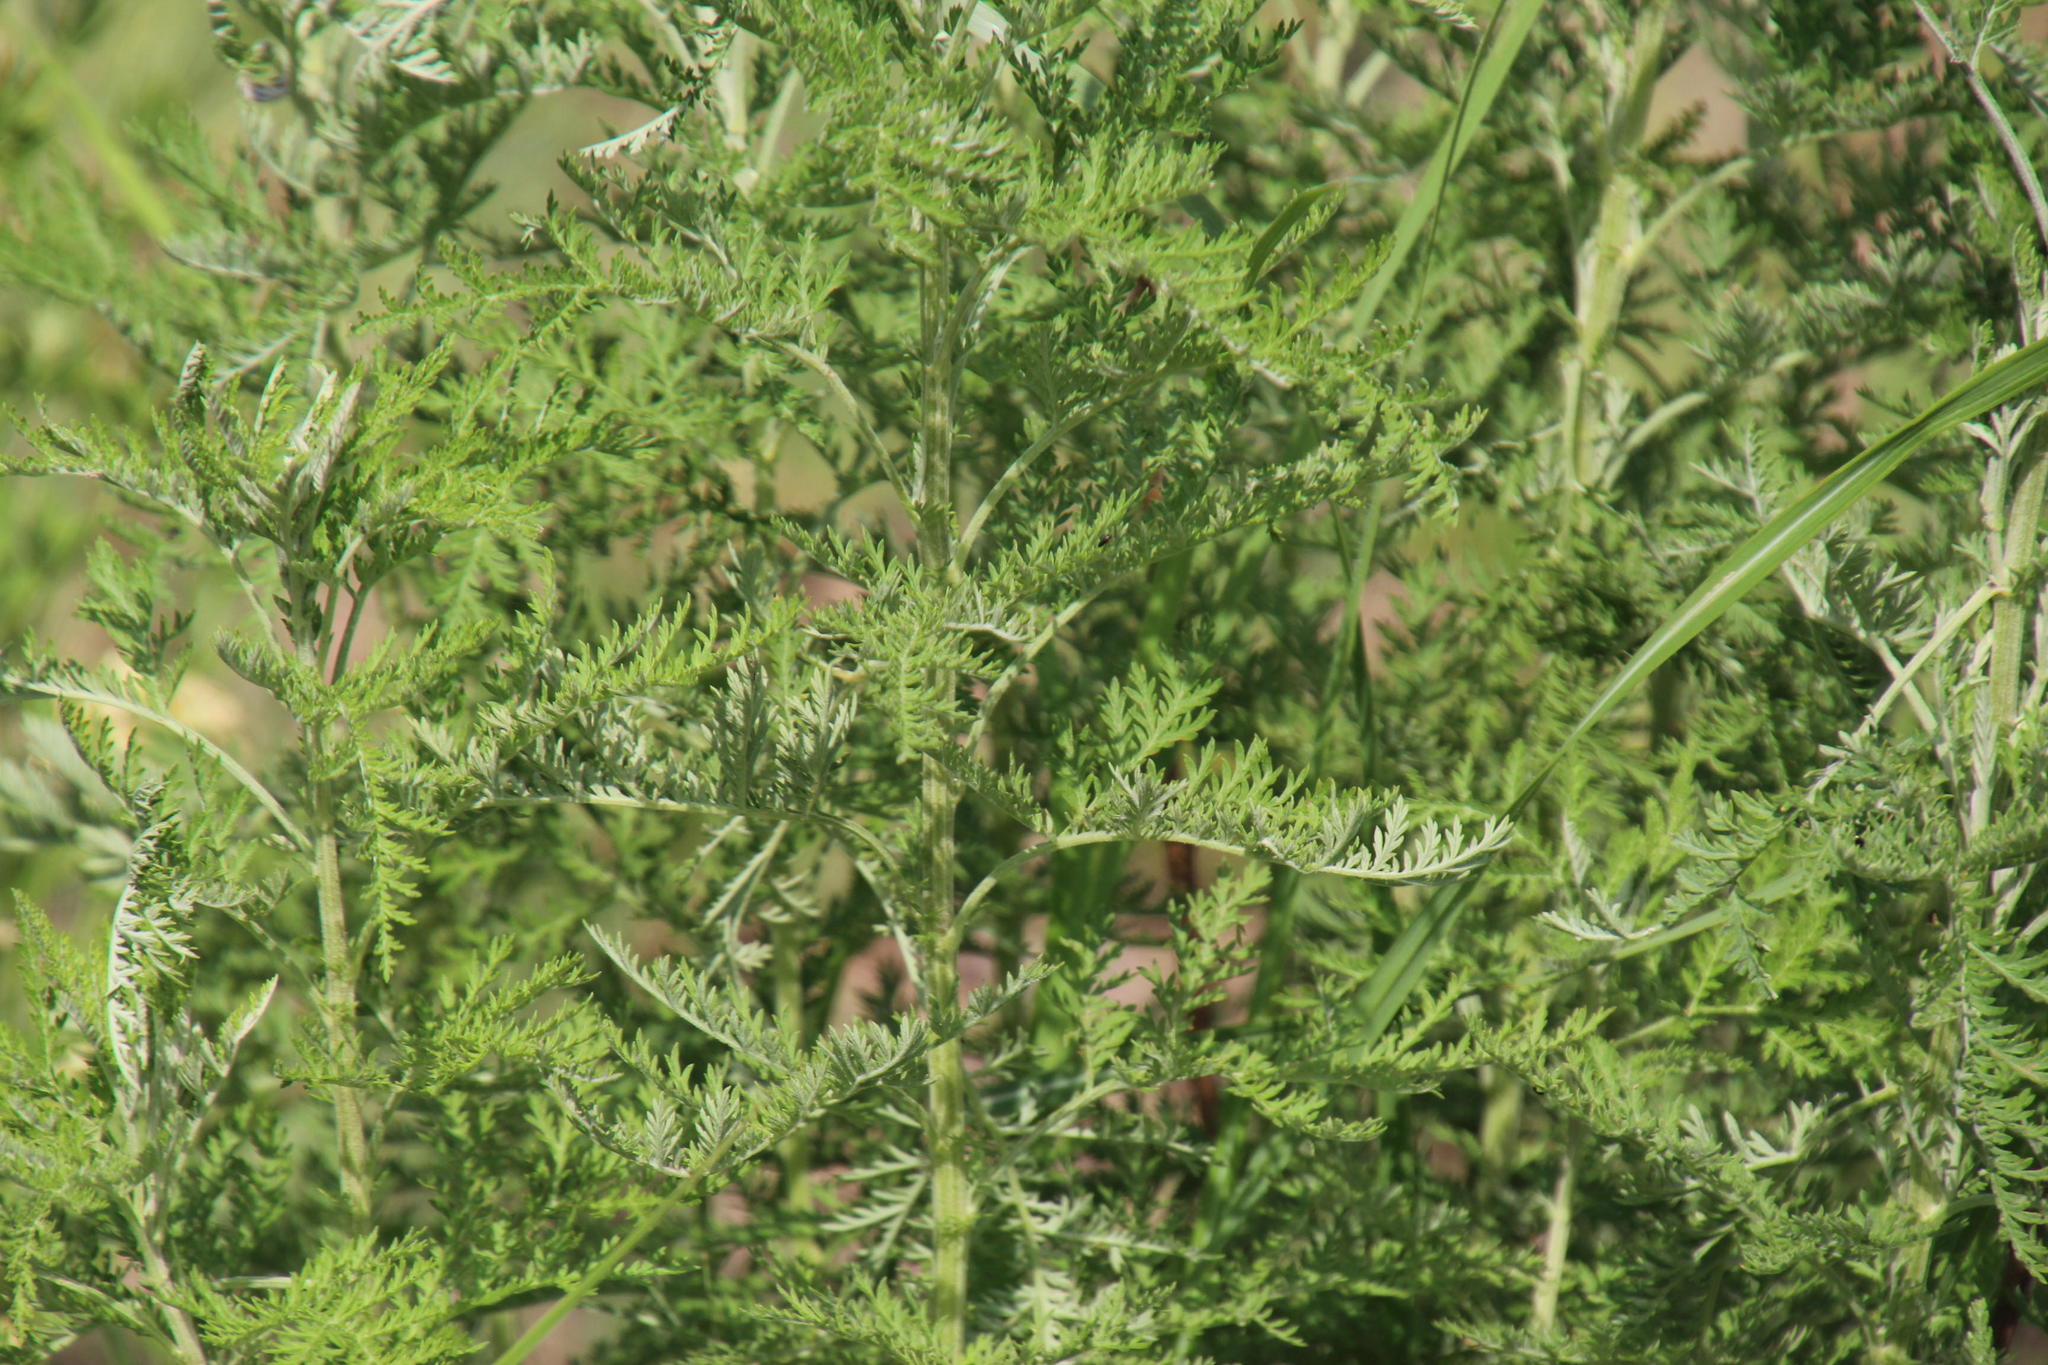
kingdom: Plantae
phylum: Tracheophyta
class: Magnoliopsida
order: Asterales
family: Asteraceae
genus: Artemisia
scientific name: Artemisia afra
